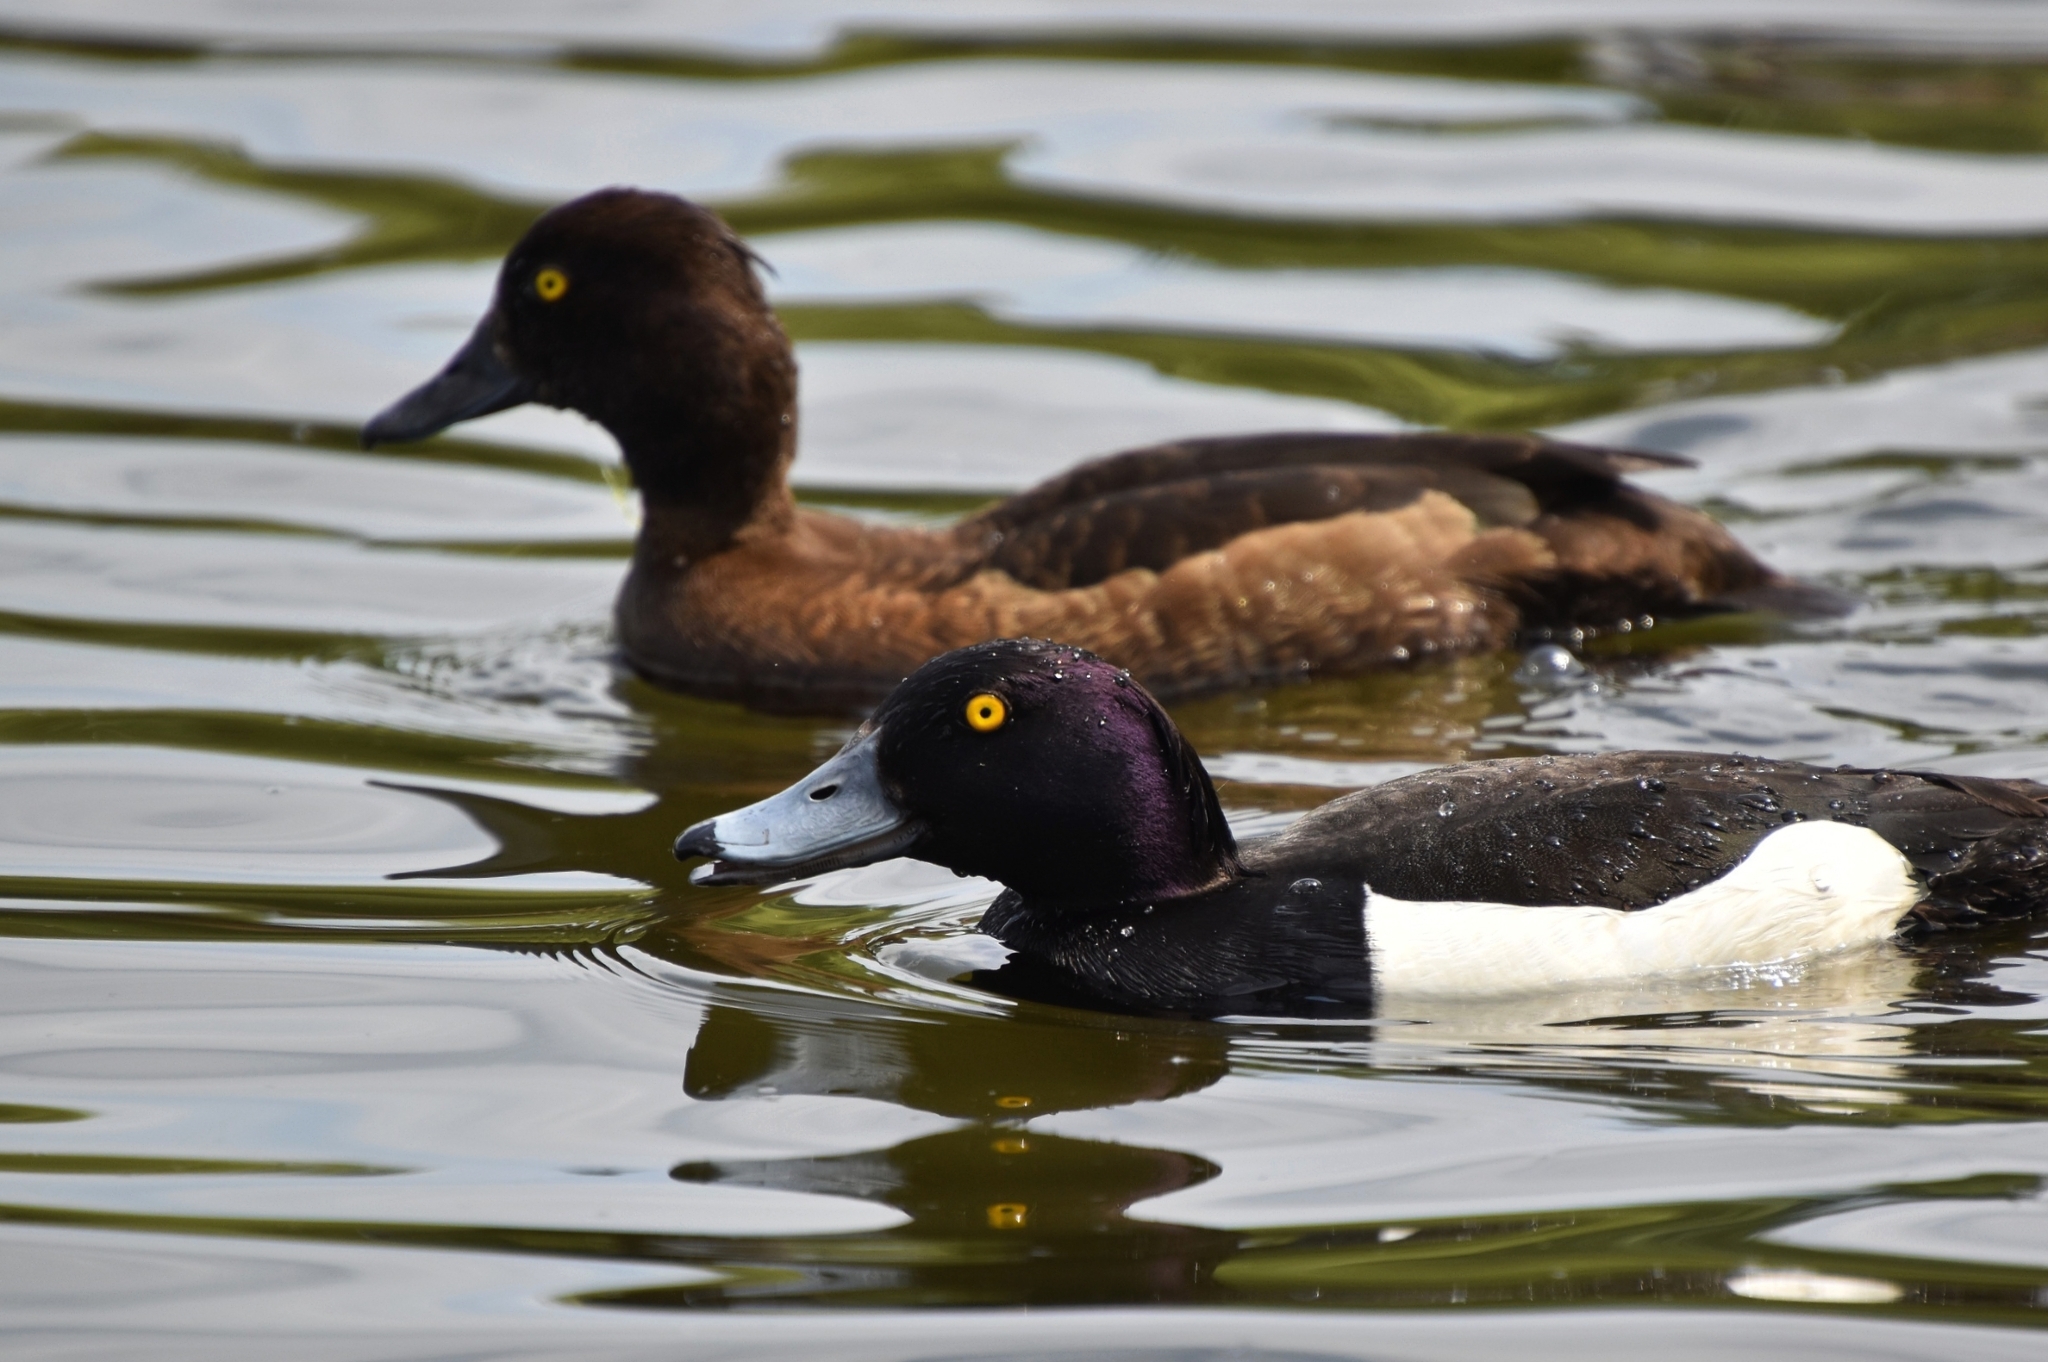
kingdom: Animalia
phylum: Chordata
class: Aves
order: Anseriformes
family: Anatidae
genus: Aythya
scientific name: Aythya fuligula
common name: Tufted duck
